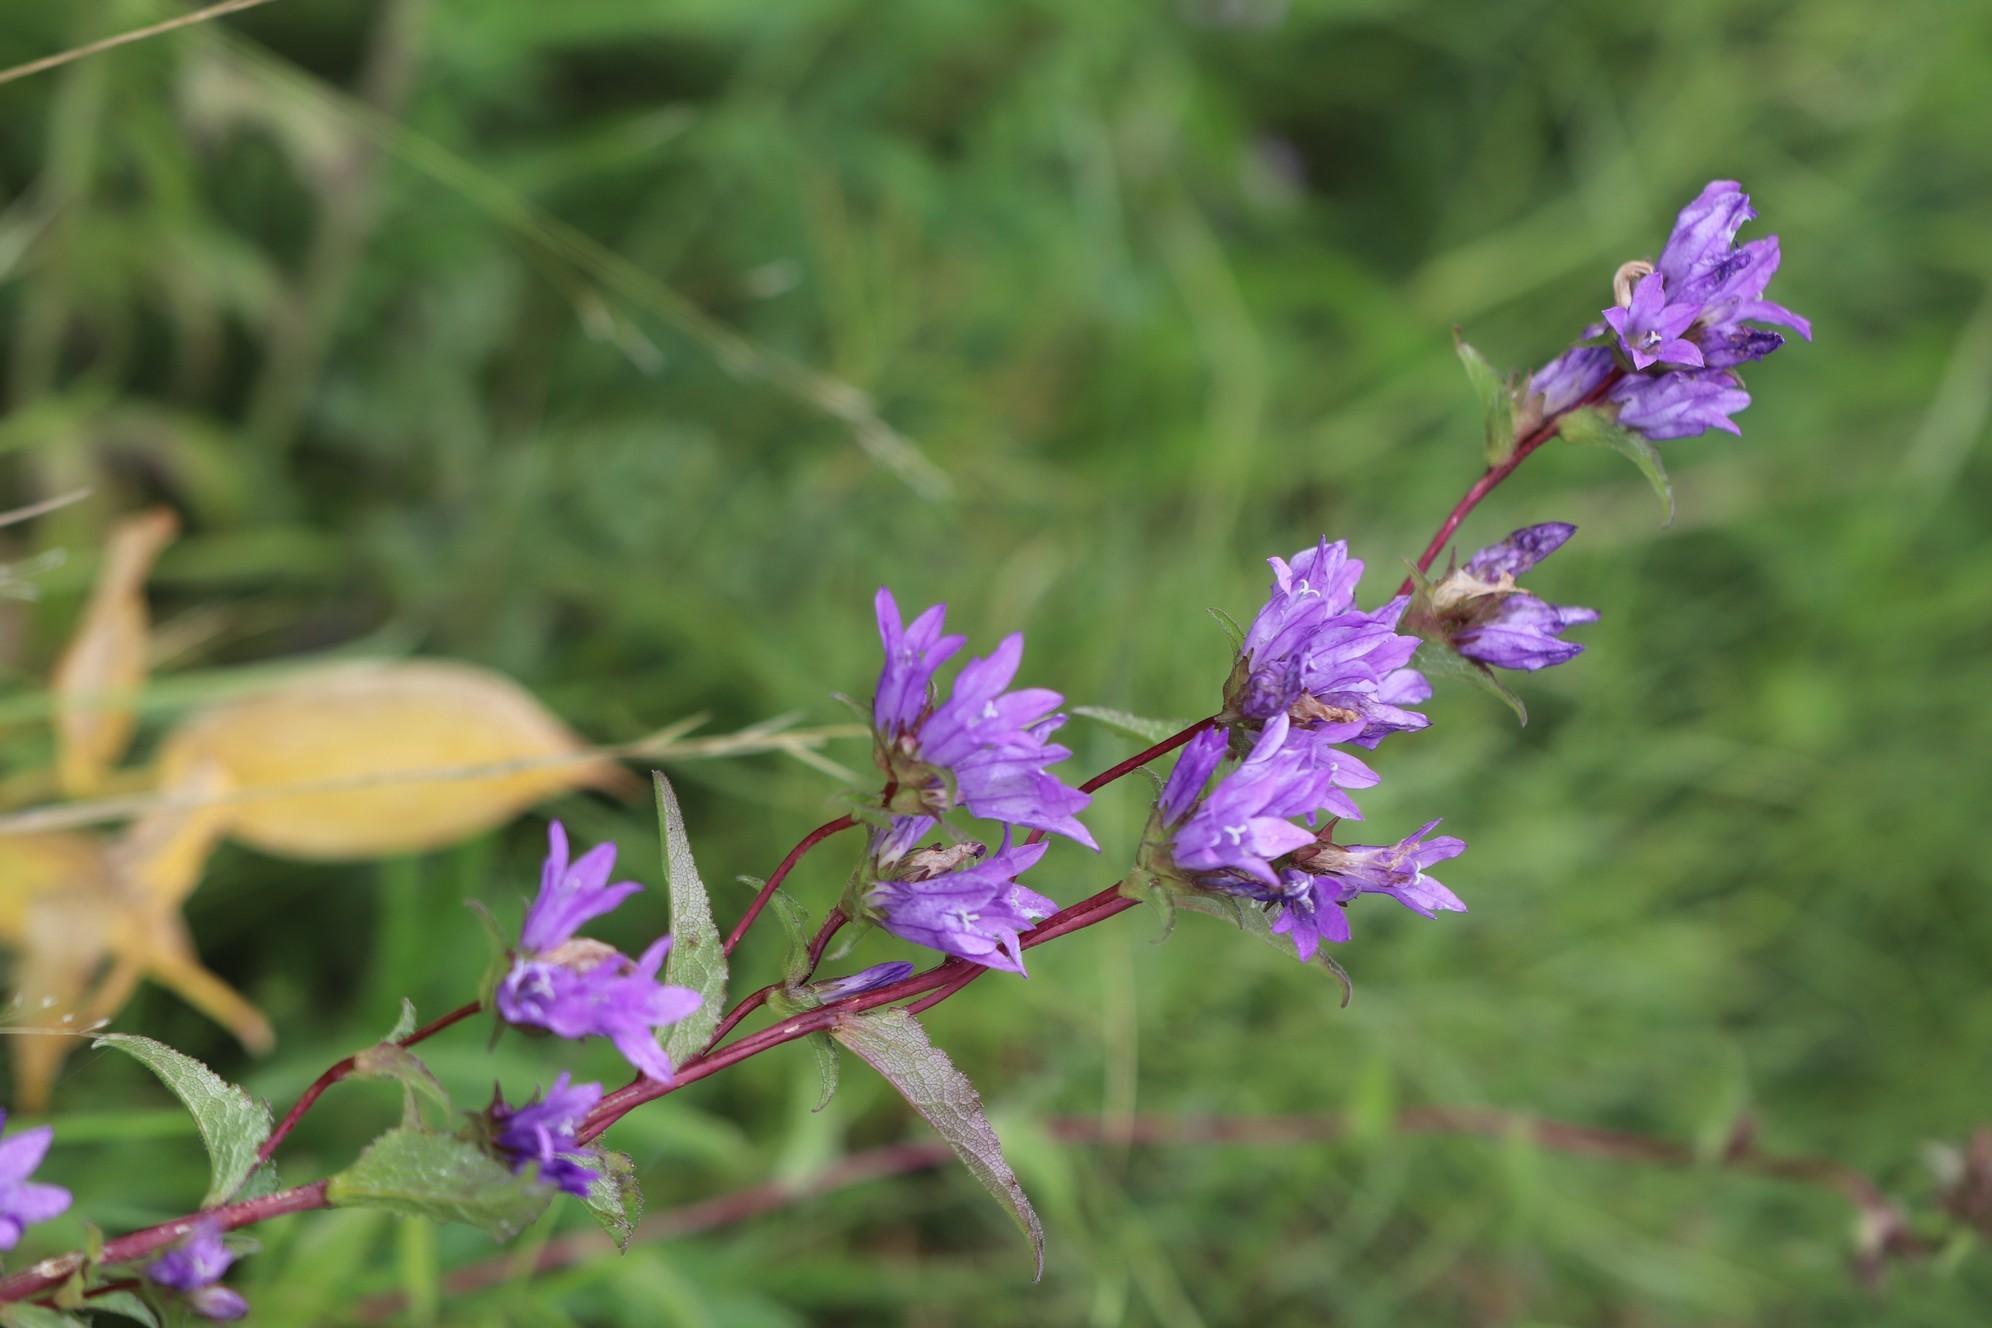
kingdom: Plantae
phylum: Tracheophyta
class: Magnoliopsida
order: Asterales
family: Campanulaceae
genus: Campanula
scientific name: Campanula glomerata
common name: Clustered bellflower
